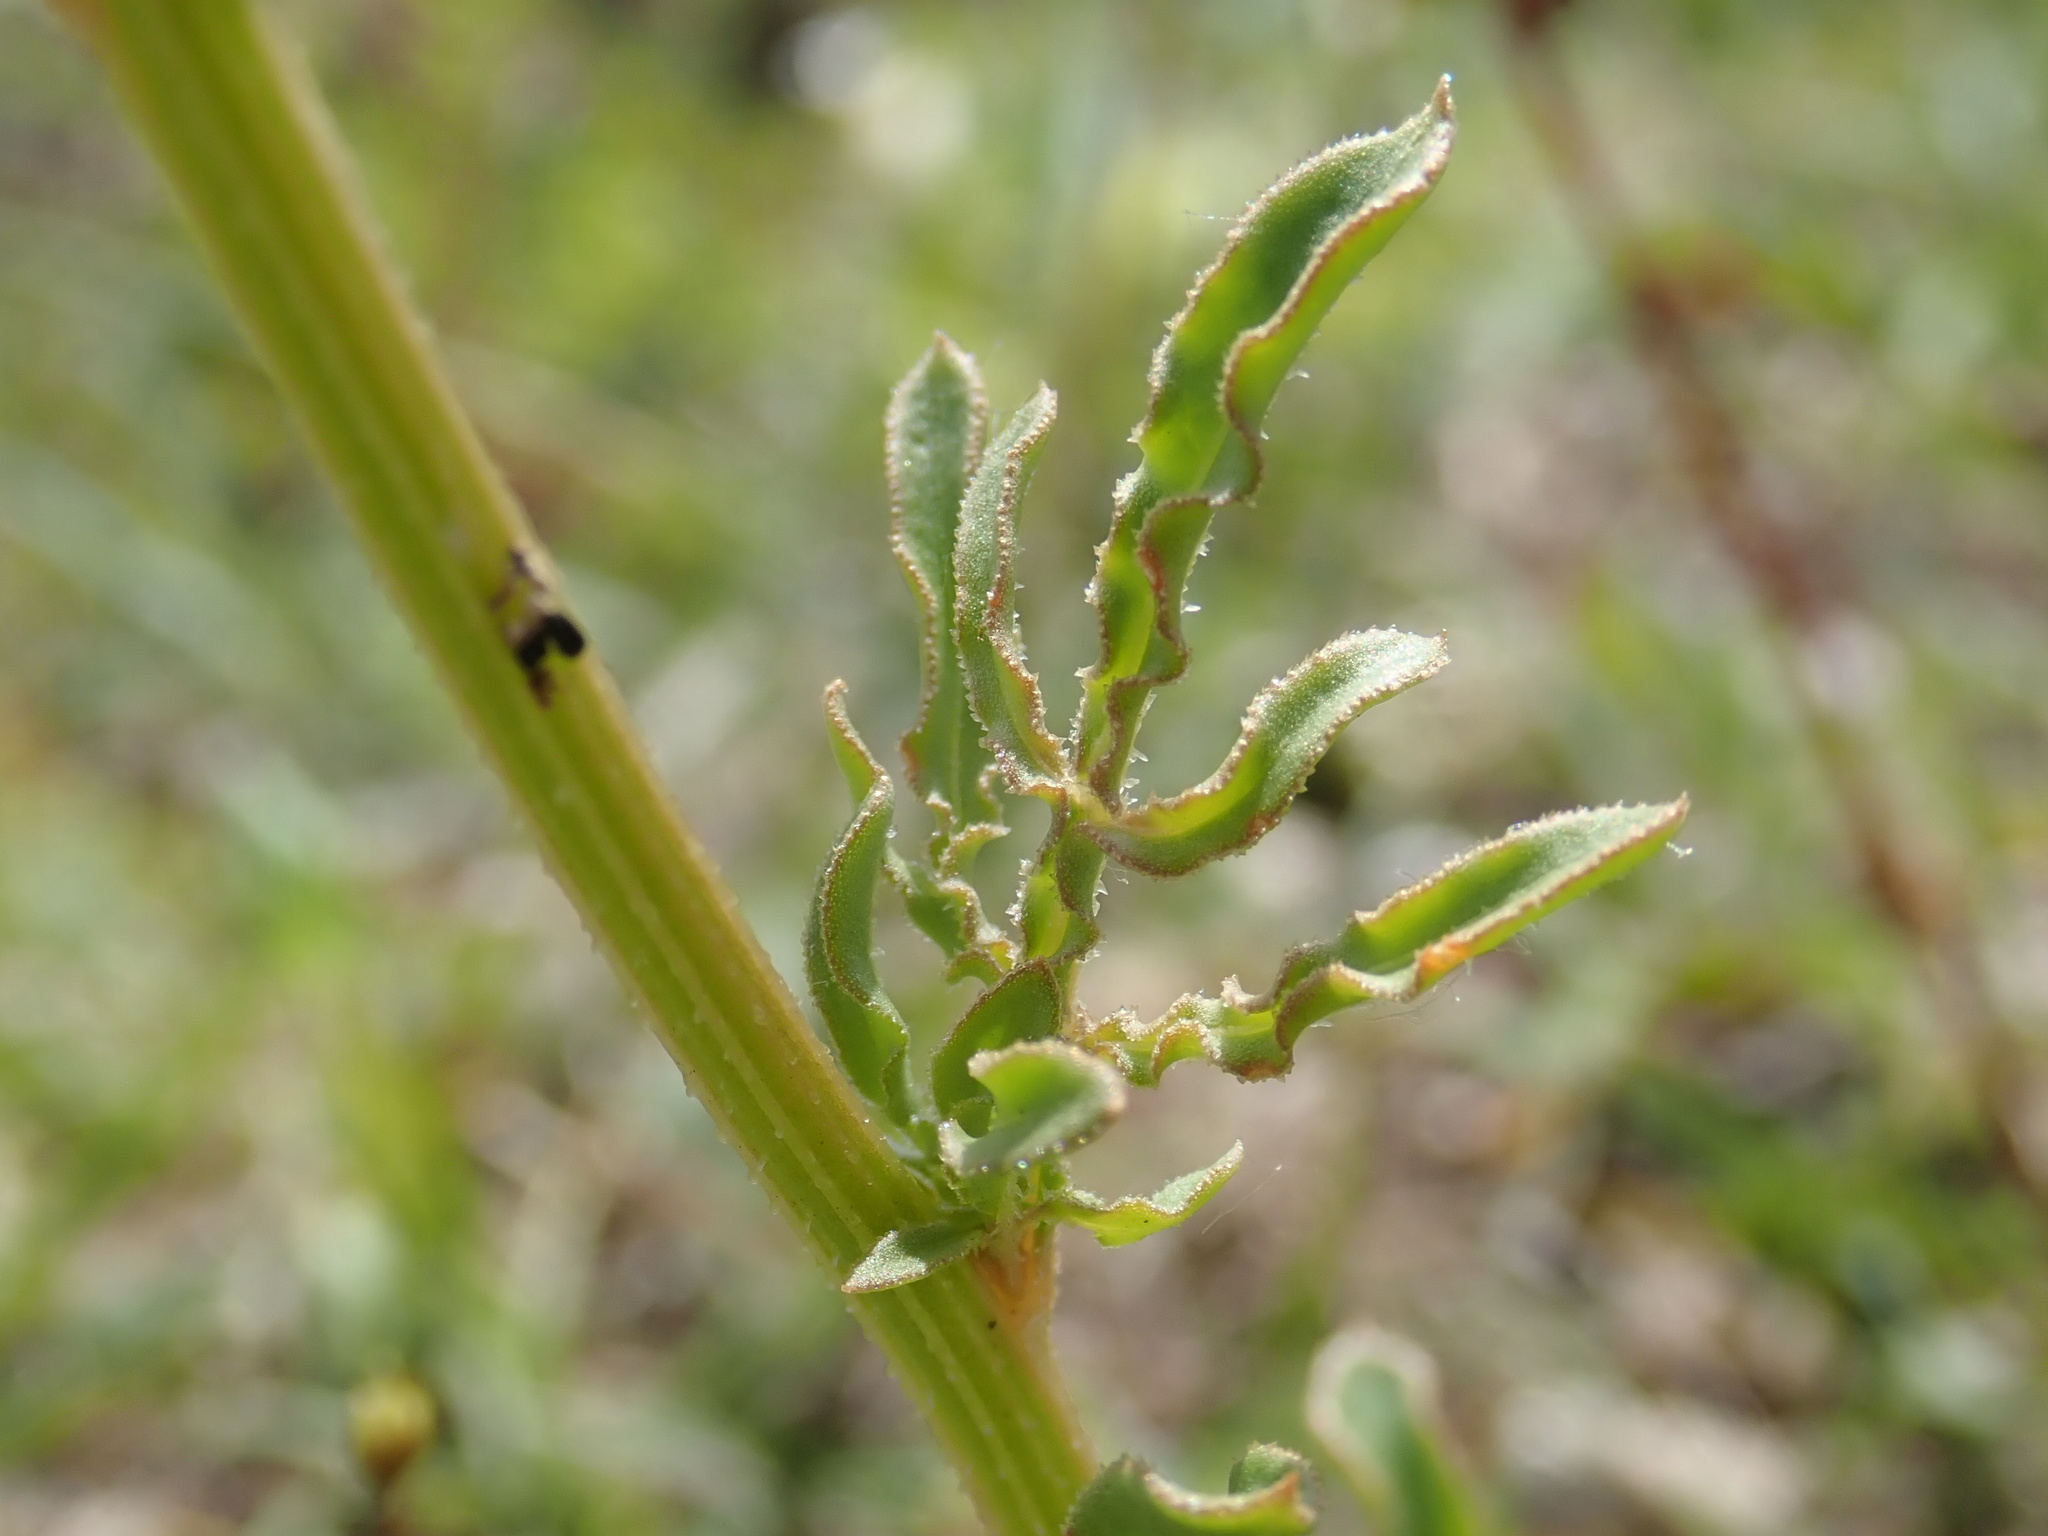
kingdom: Plantae
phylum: Tracheophyta
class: Magnoliopsida
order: Brassicales
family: Resedaceae
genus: Reseda
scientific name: Reseda lutea
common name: Wild mignonette
